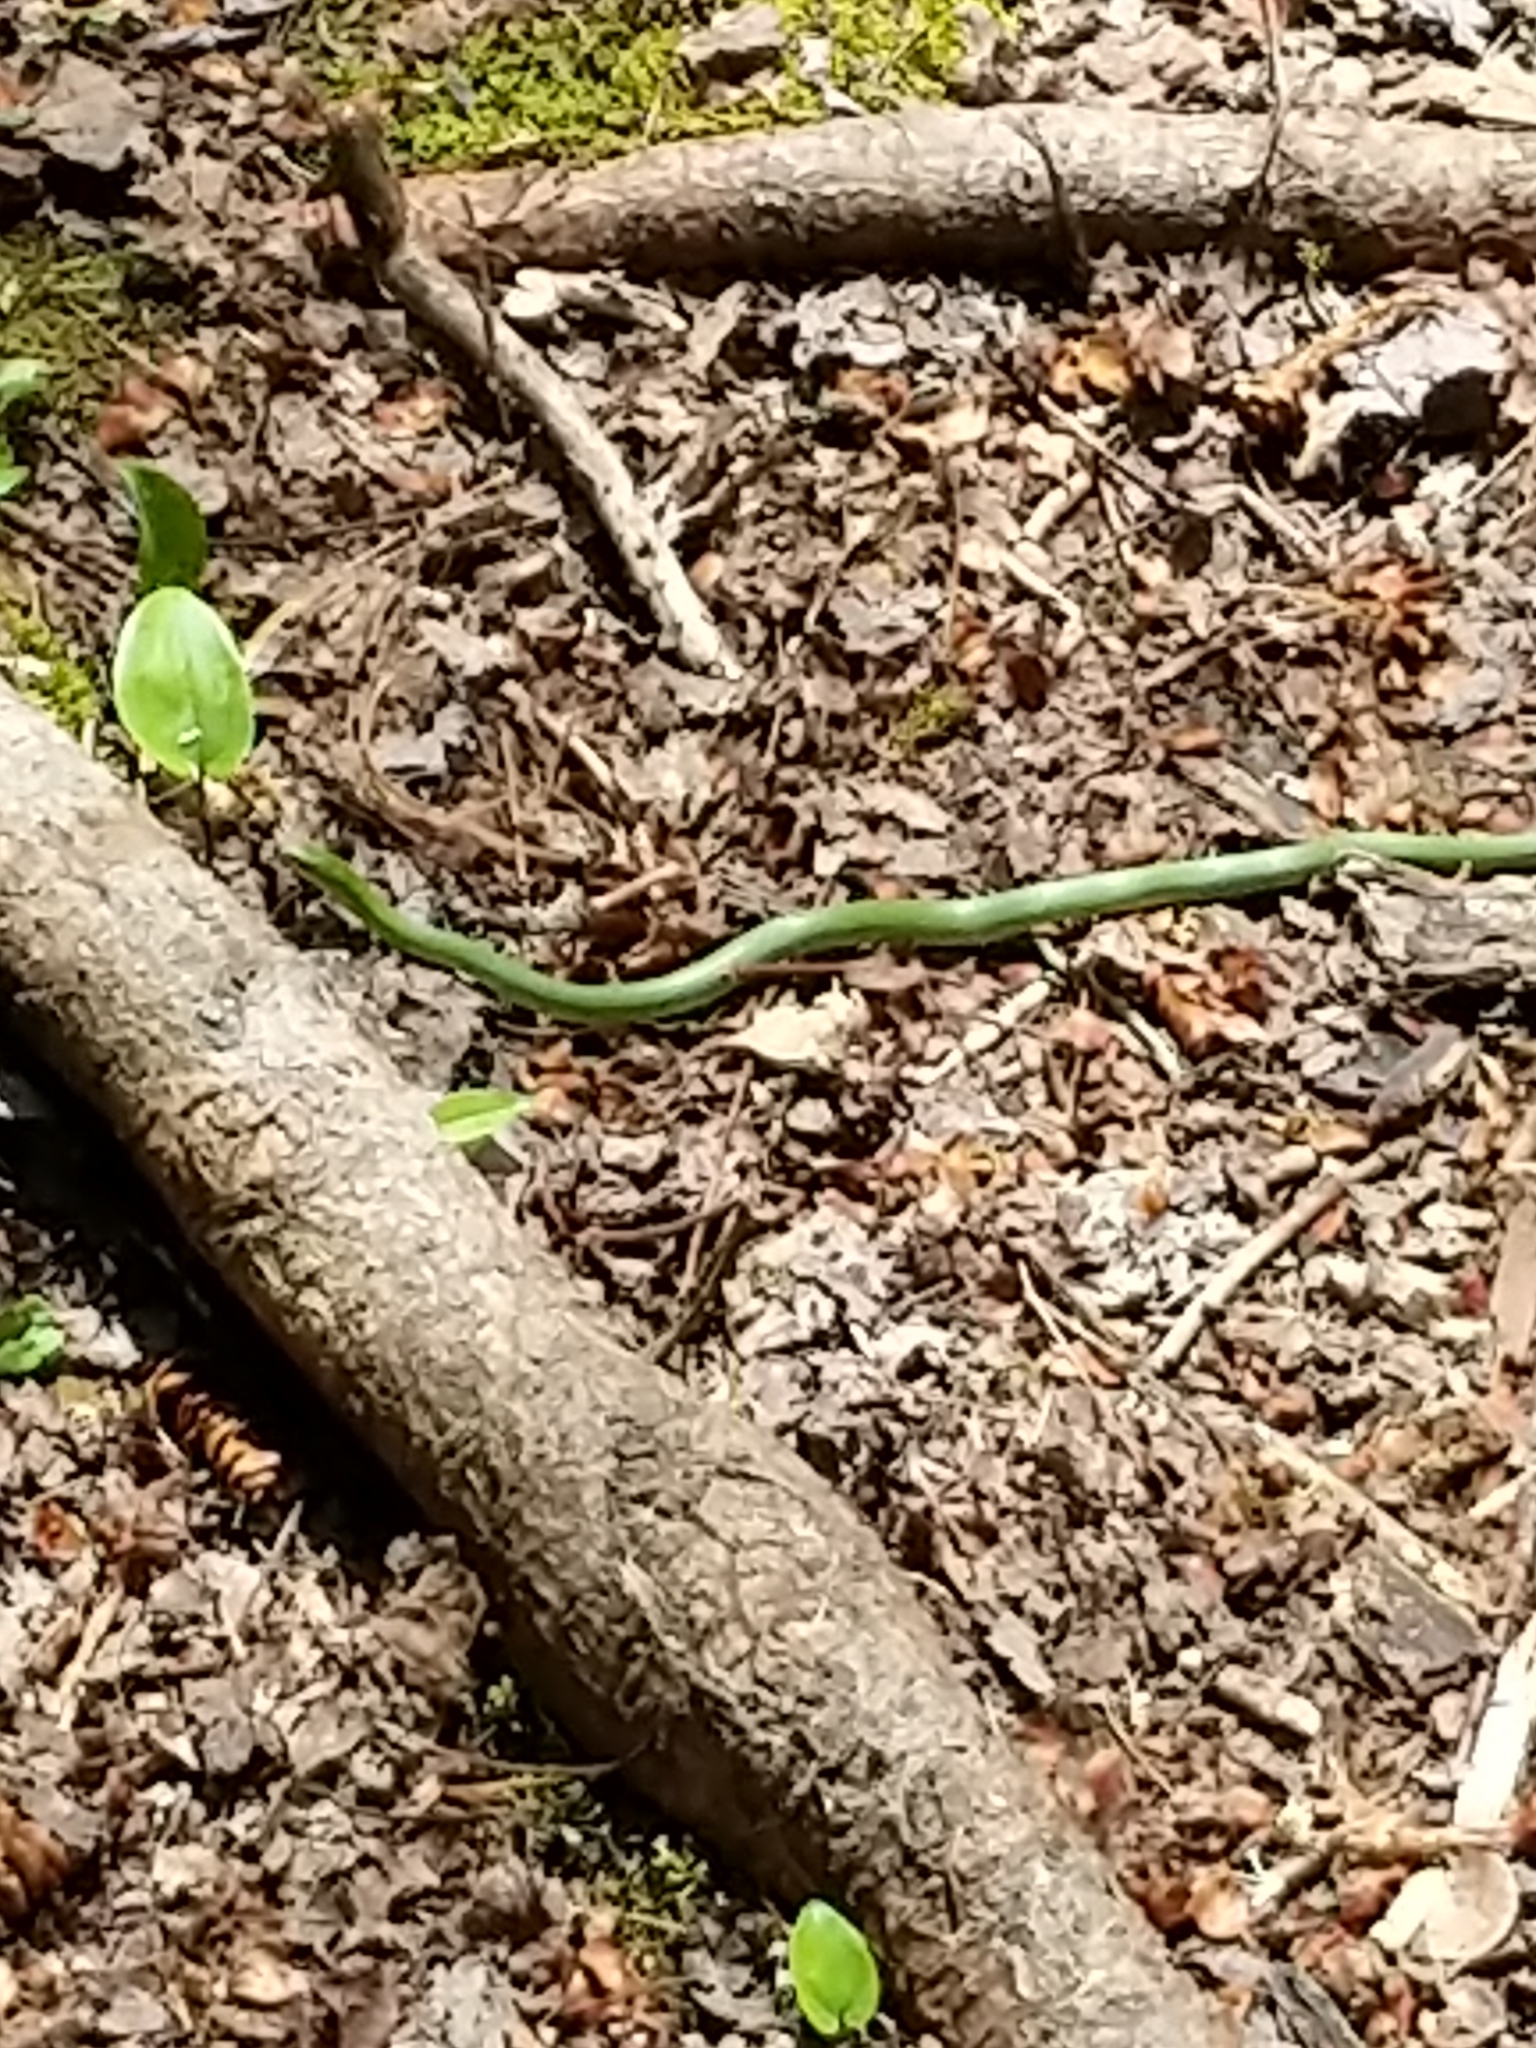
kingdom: Animalia
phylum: Chordata
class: Squamata
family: Colubridae
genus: Opheodrys
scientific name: Opheodrys vernalis
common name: Smooth green snake
